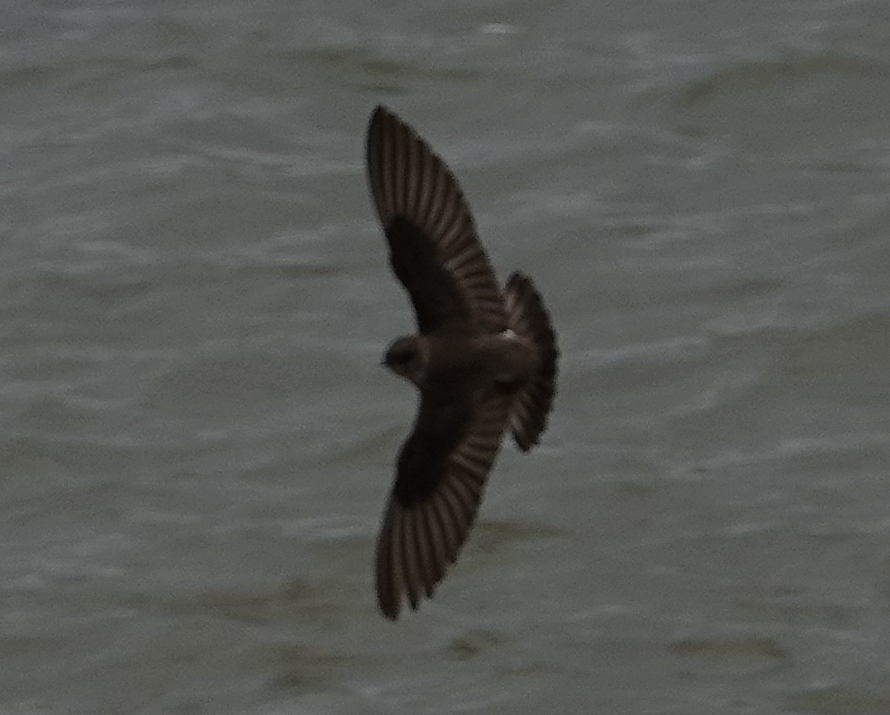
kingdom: Animalia
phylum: Chordata
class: Aves
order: Passeriformes
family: Hirundinidae
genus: Stelgidopteryx
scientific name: Stelgidopteryx serripennis
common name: Northern rough-winged swallow
